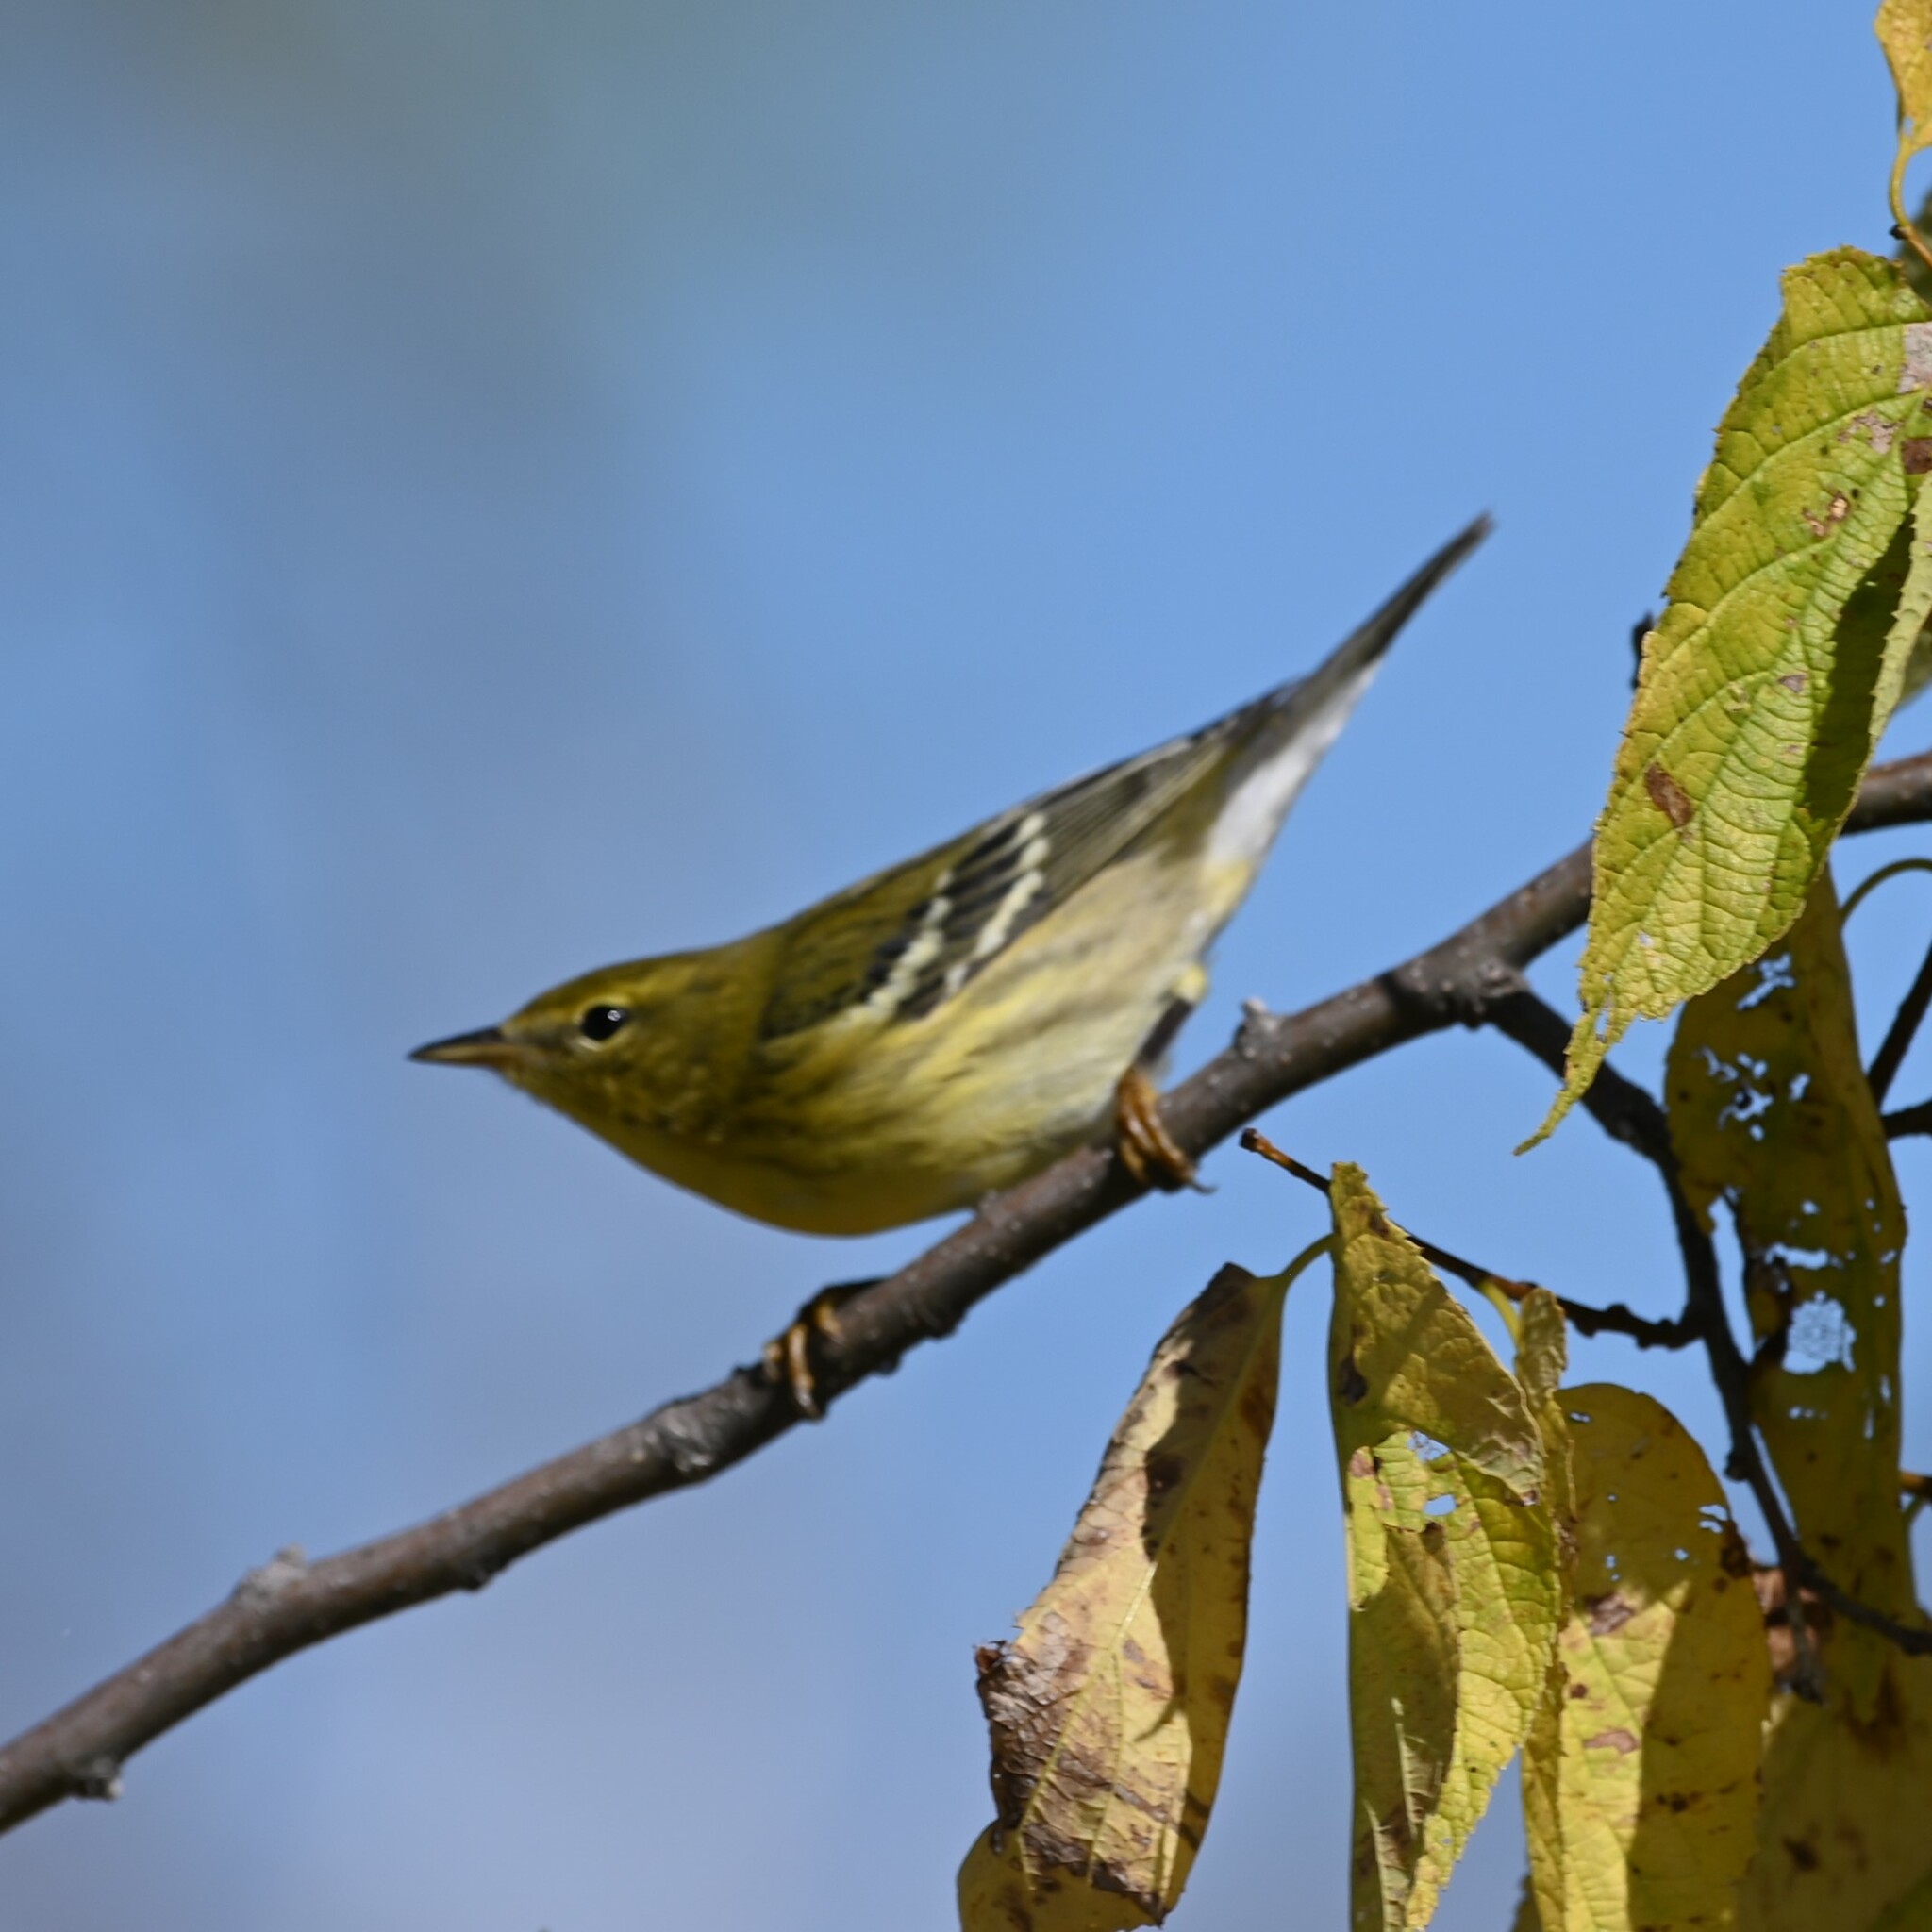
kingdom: Animalia
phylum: Chordata
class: Aves
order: Passeriformes
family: Parulidae
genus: Setophaga
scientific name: Setophaga striata
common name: Blackpoll warbler
